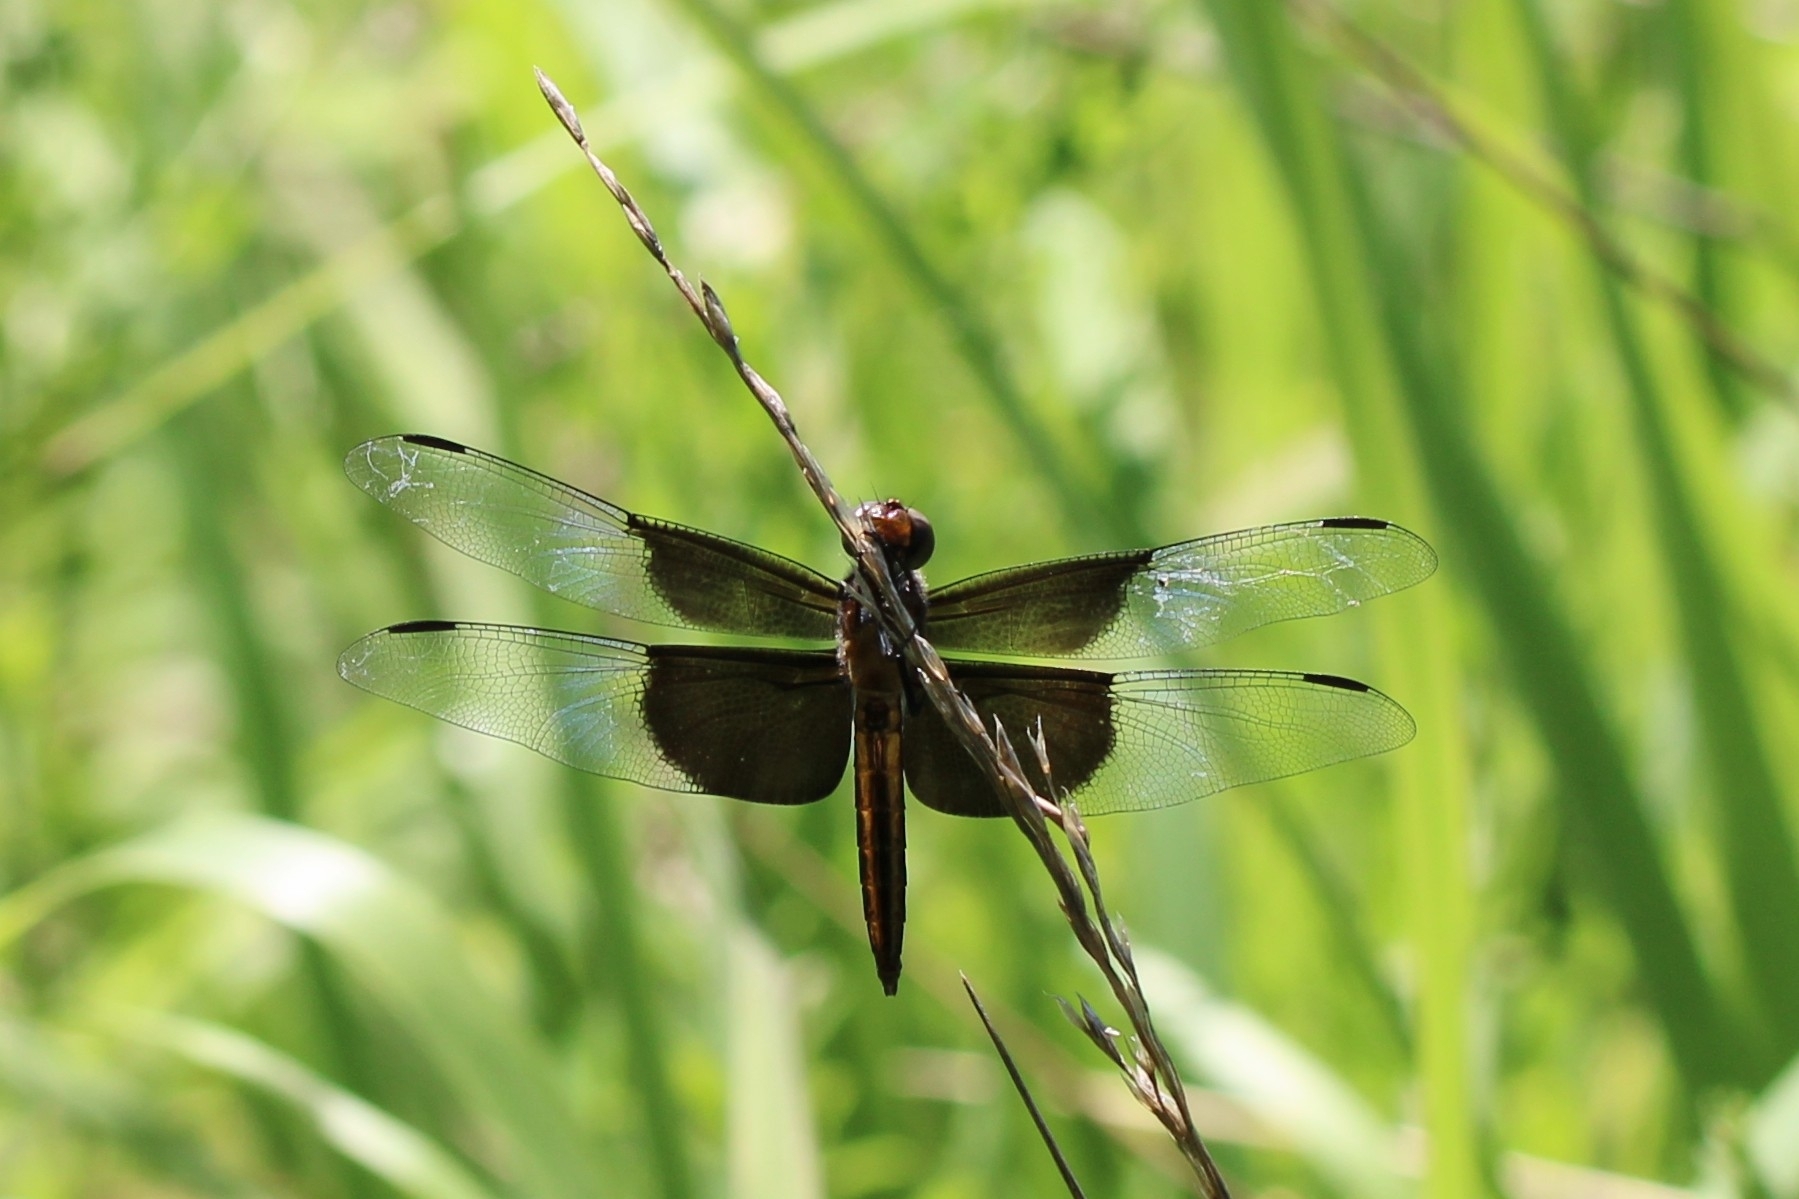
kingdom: Animalia
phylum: Arthropoda
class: Insecta
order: Odonata
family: Libellulidae
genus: Libellula
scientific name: Libellula luctuosa
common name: Widow skimmer
